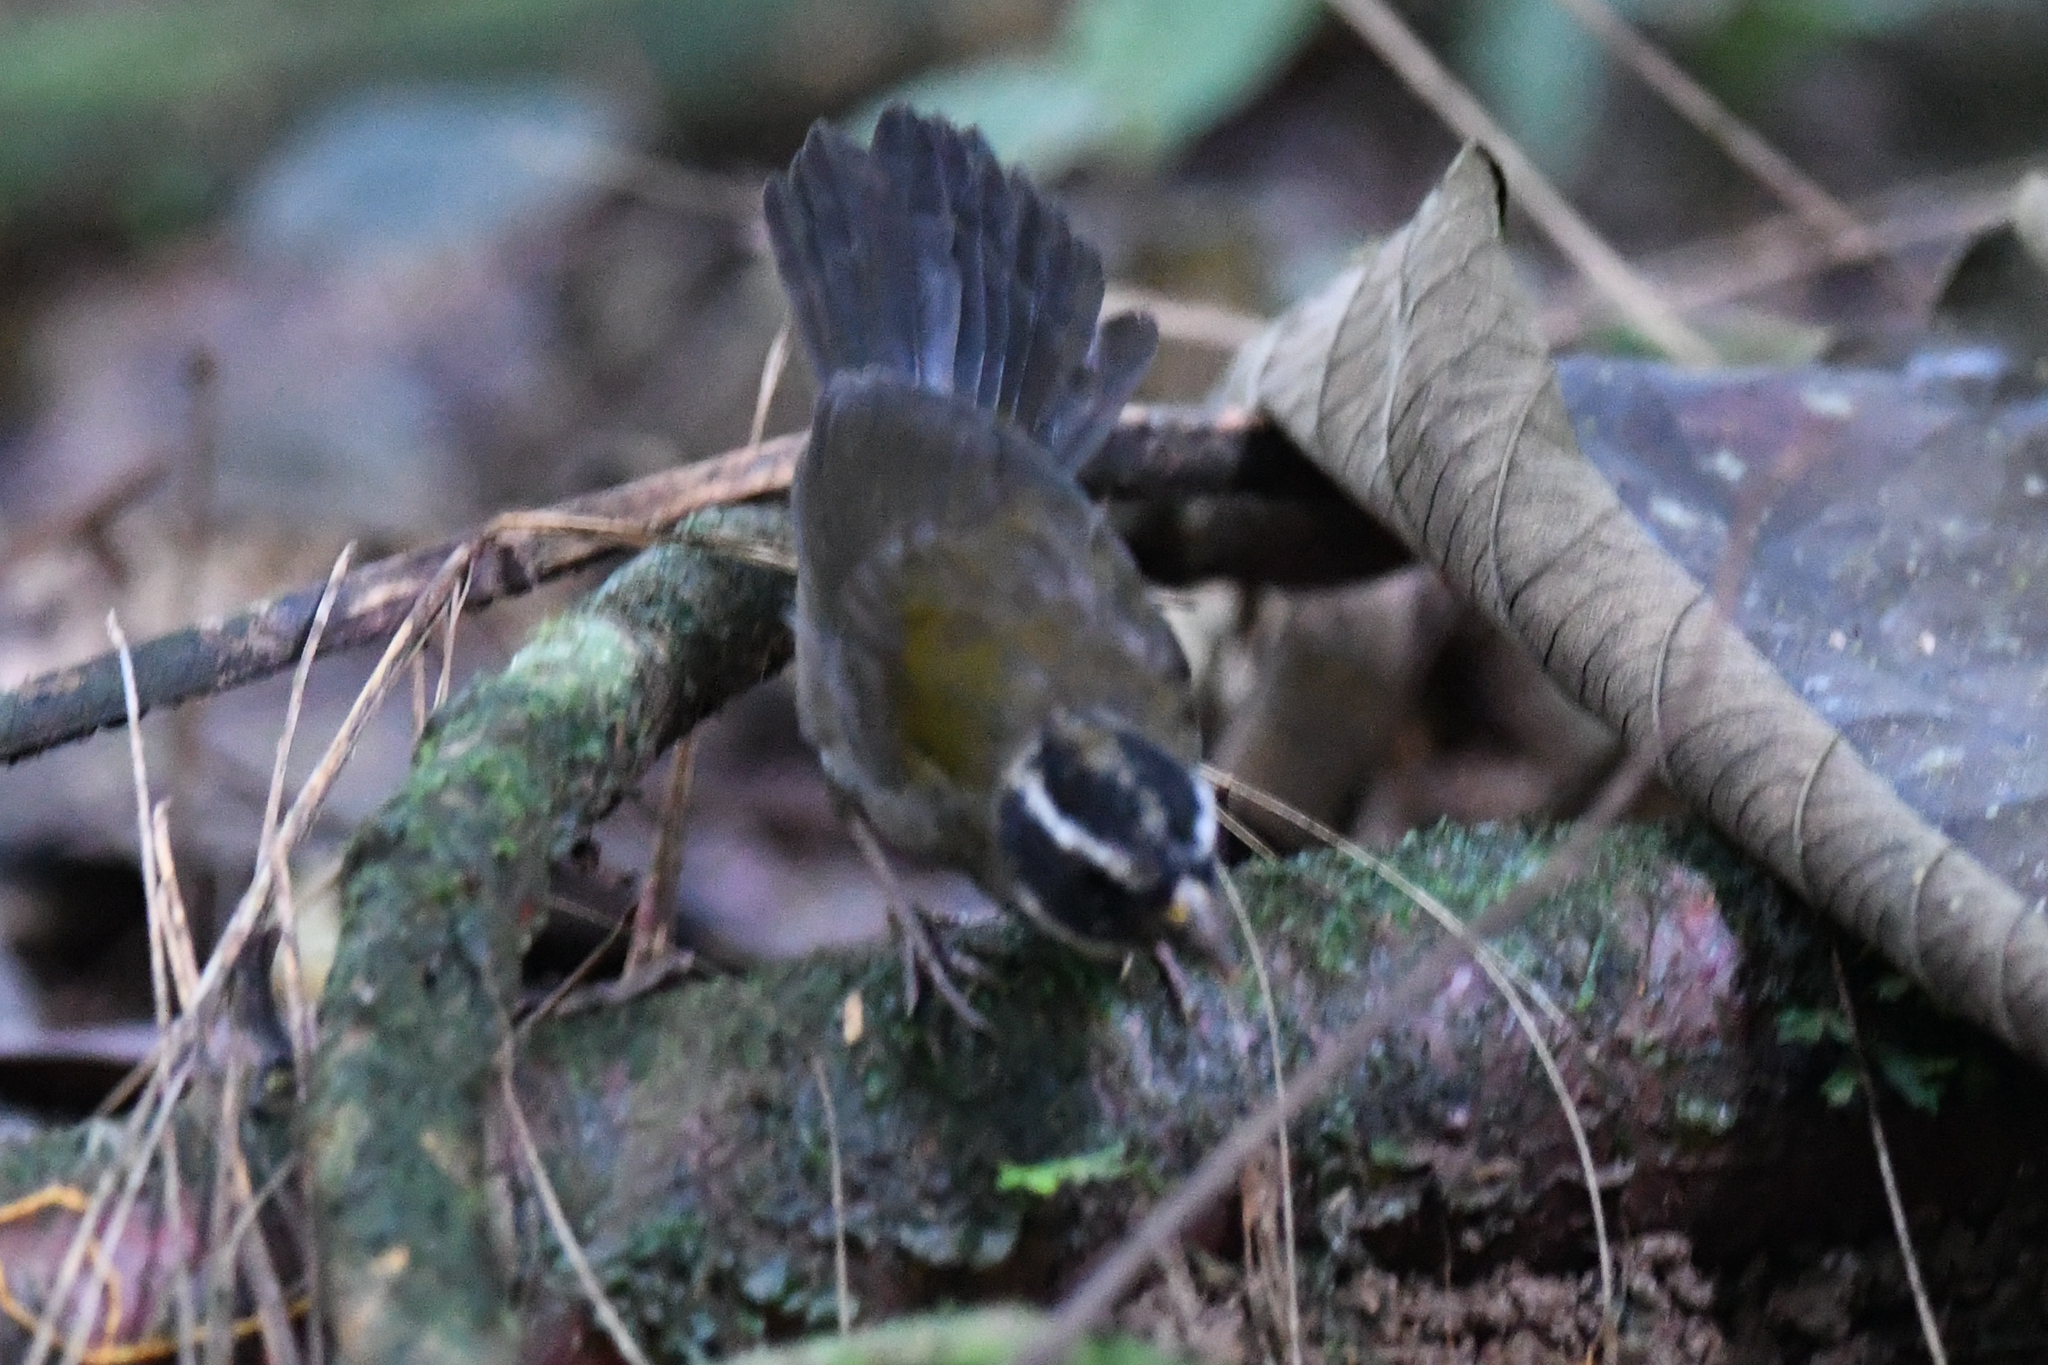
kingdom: Animalia
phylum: Chordata
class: Aves
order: Passeriformes
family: Passerellidae
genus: Arremon
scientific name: Arremon aurantiirostris
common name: Orange-billed sparrow
